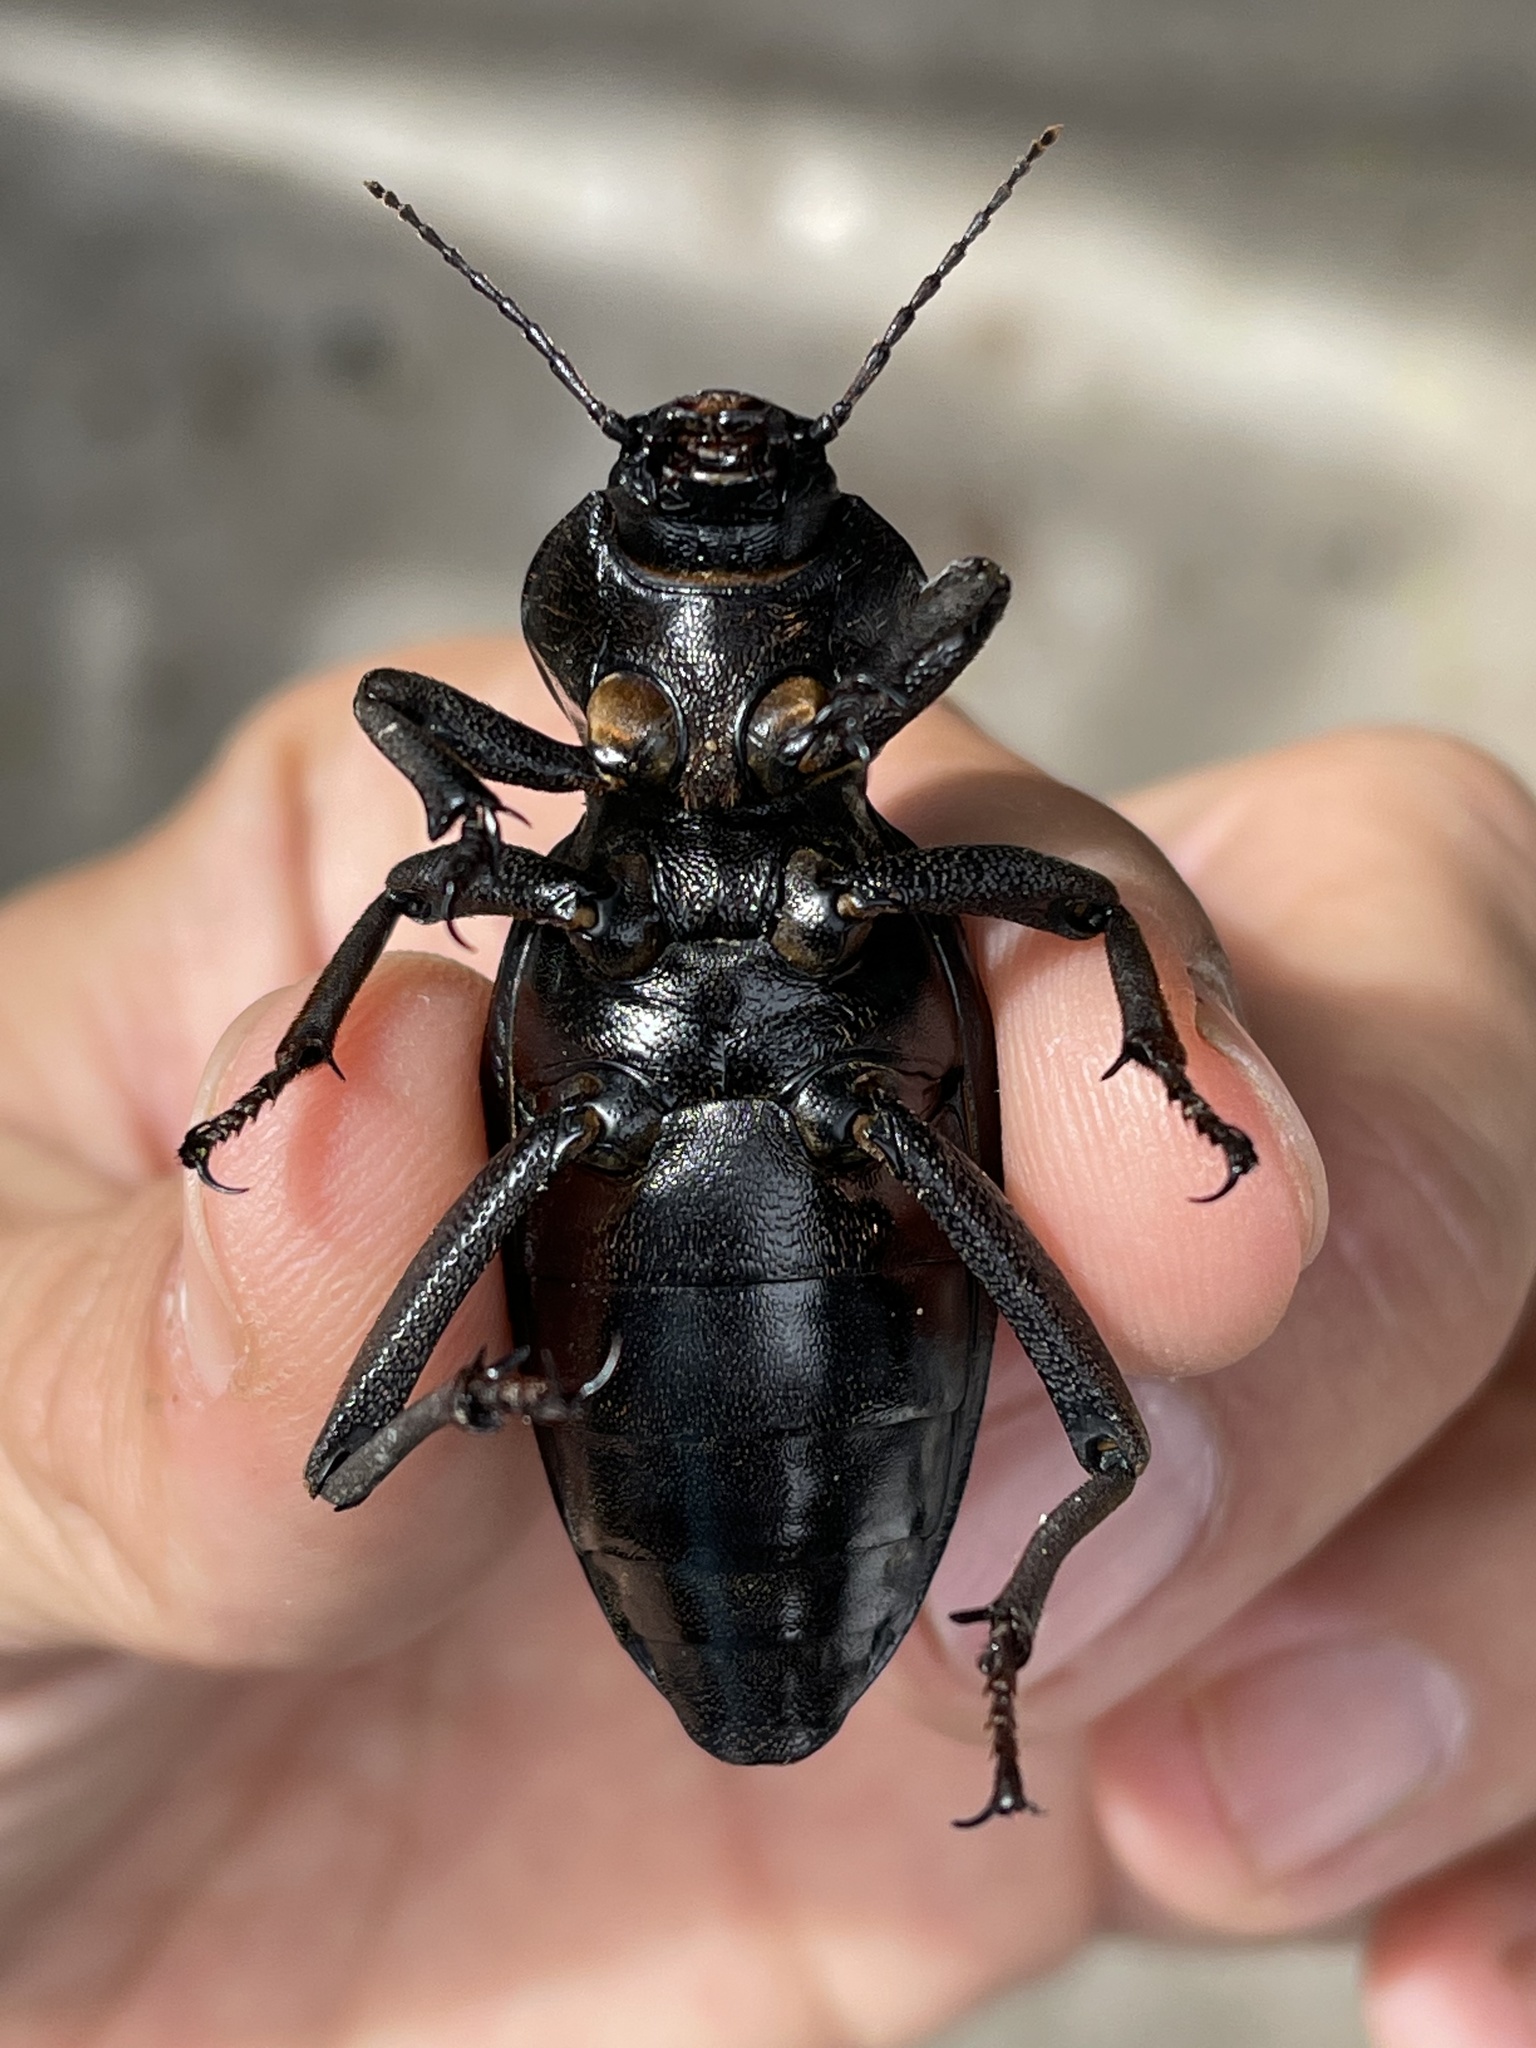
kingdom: Animalia
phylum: Arthropoda
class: Insecta
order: Coleoptera
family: Tenebrionidae
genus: Chiliarchum
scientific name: Chiliarchum
